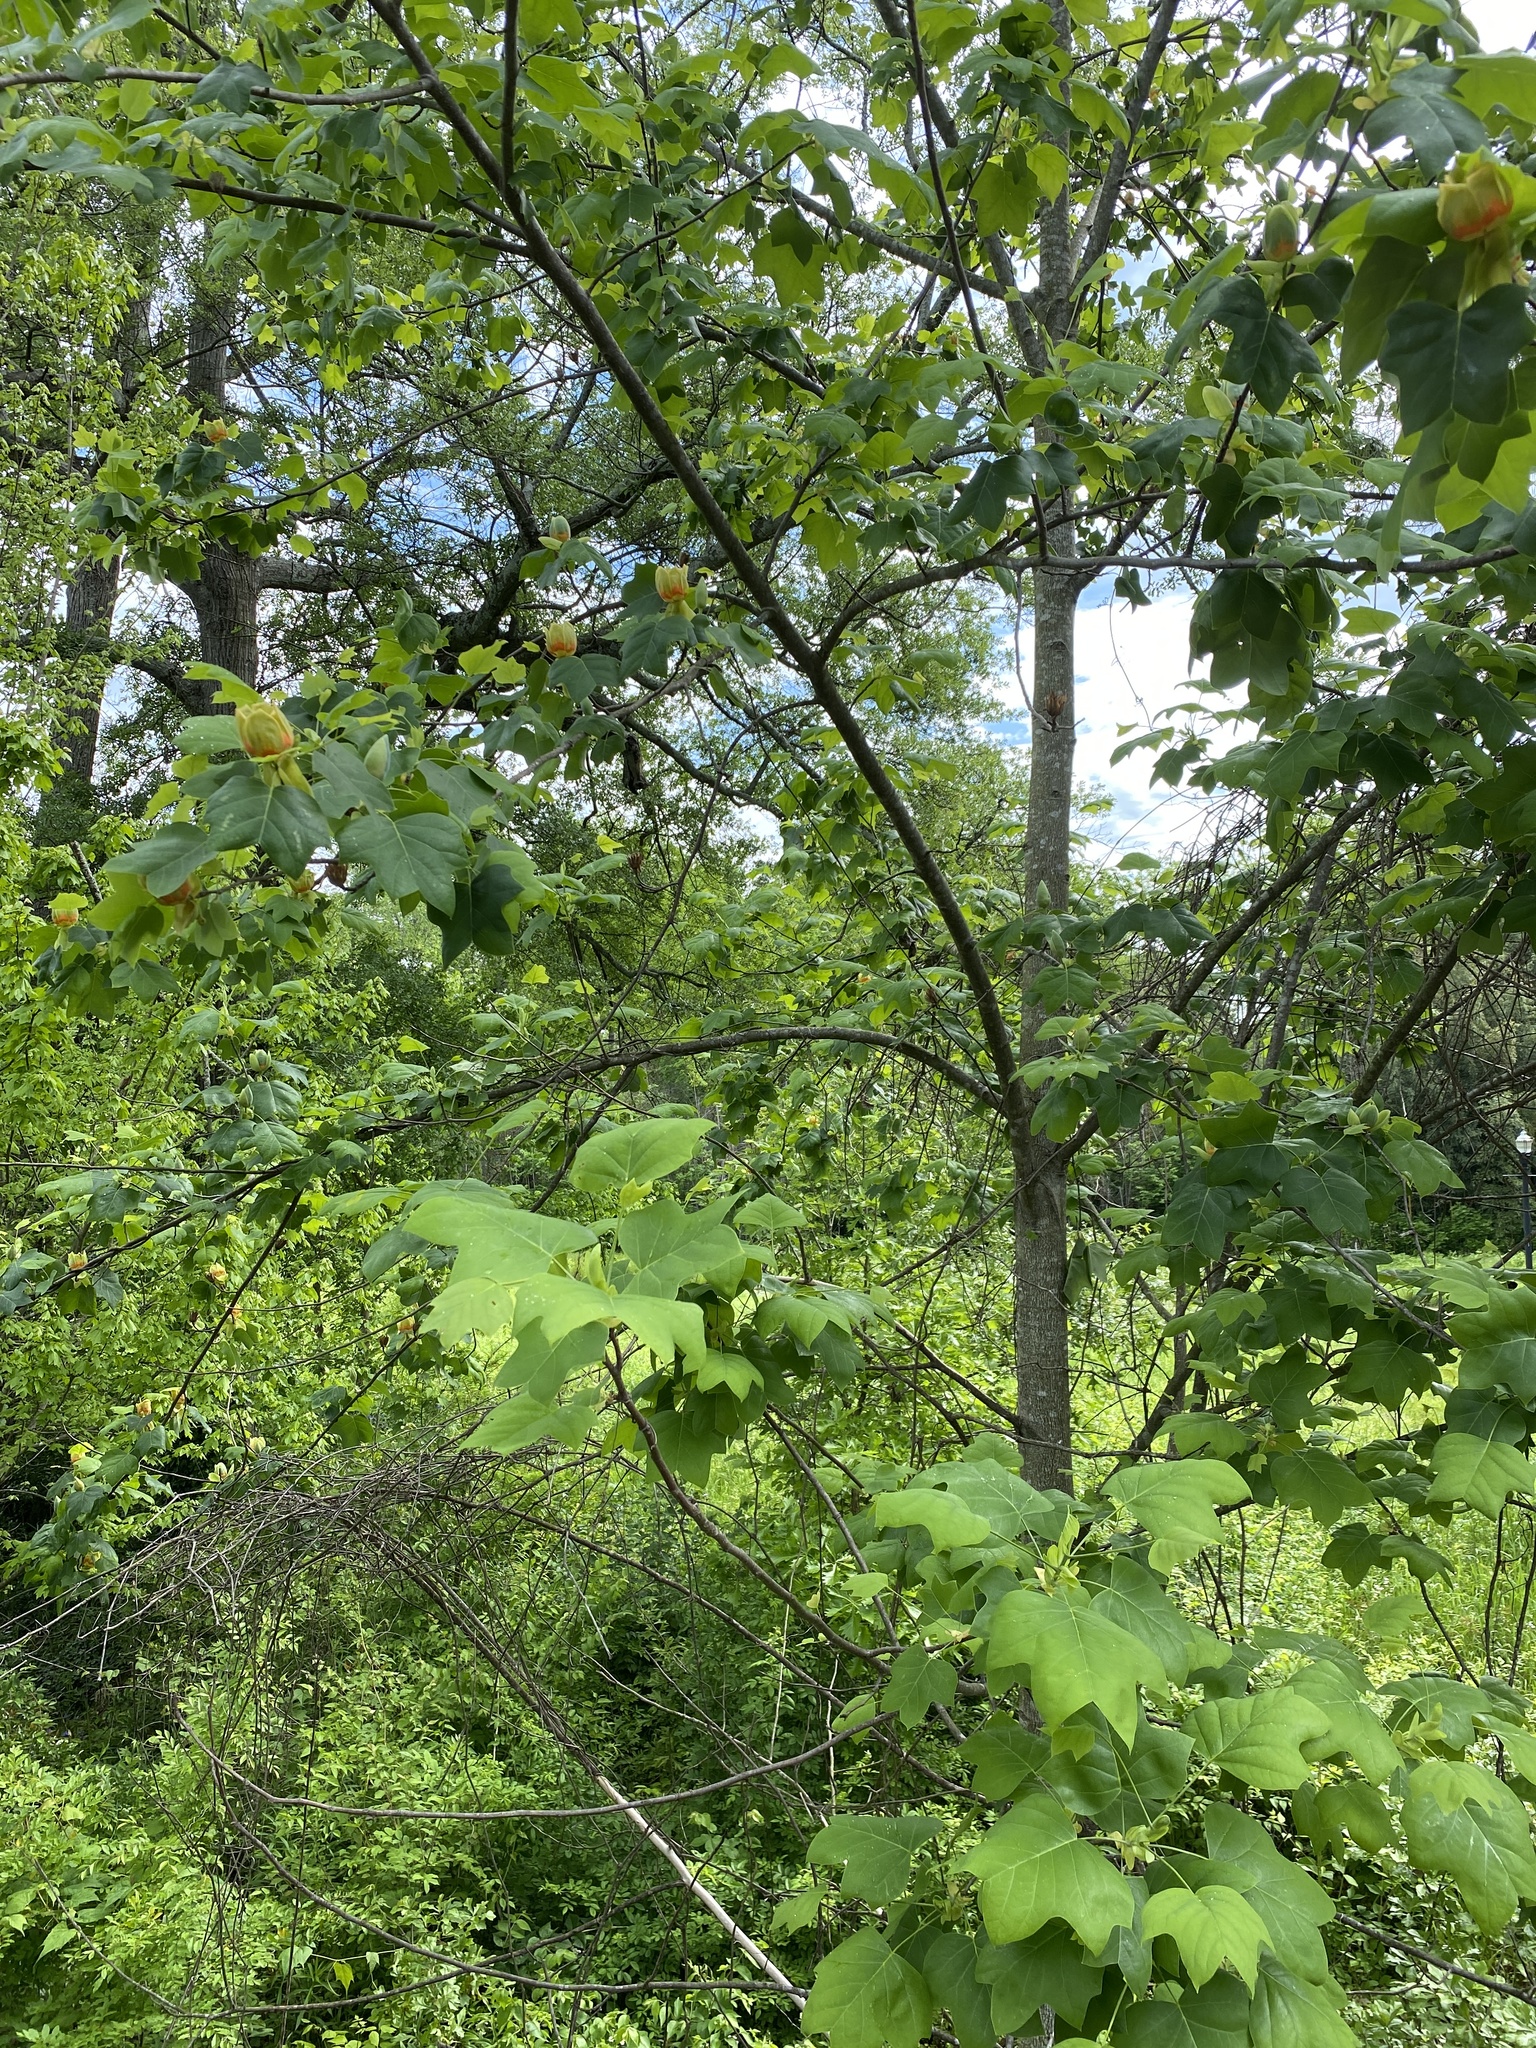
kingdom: Plantae
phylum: Tracheophyta
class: Magnoliopsida
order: Magnoliales
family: Magnoliaceae
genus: Liriodendron
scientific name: Liriodendron tulipifera
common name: Tulip tree
